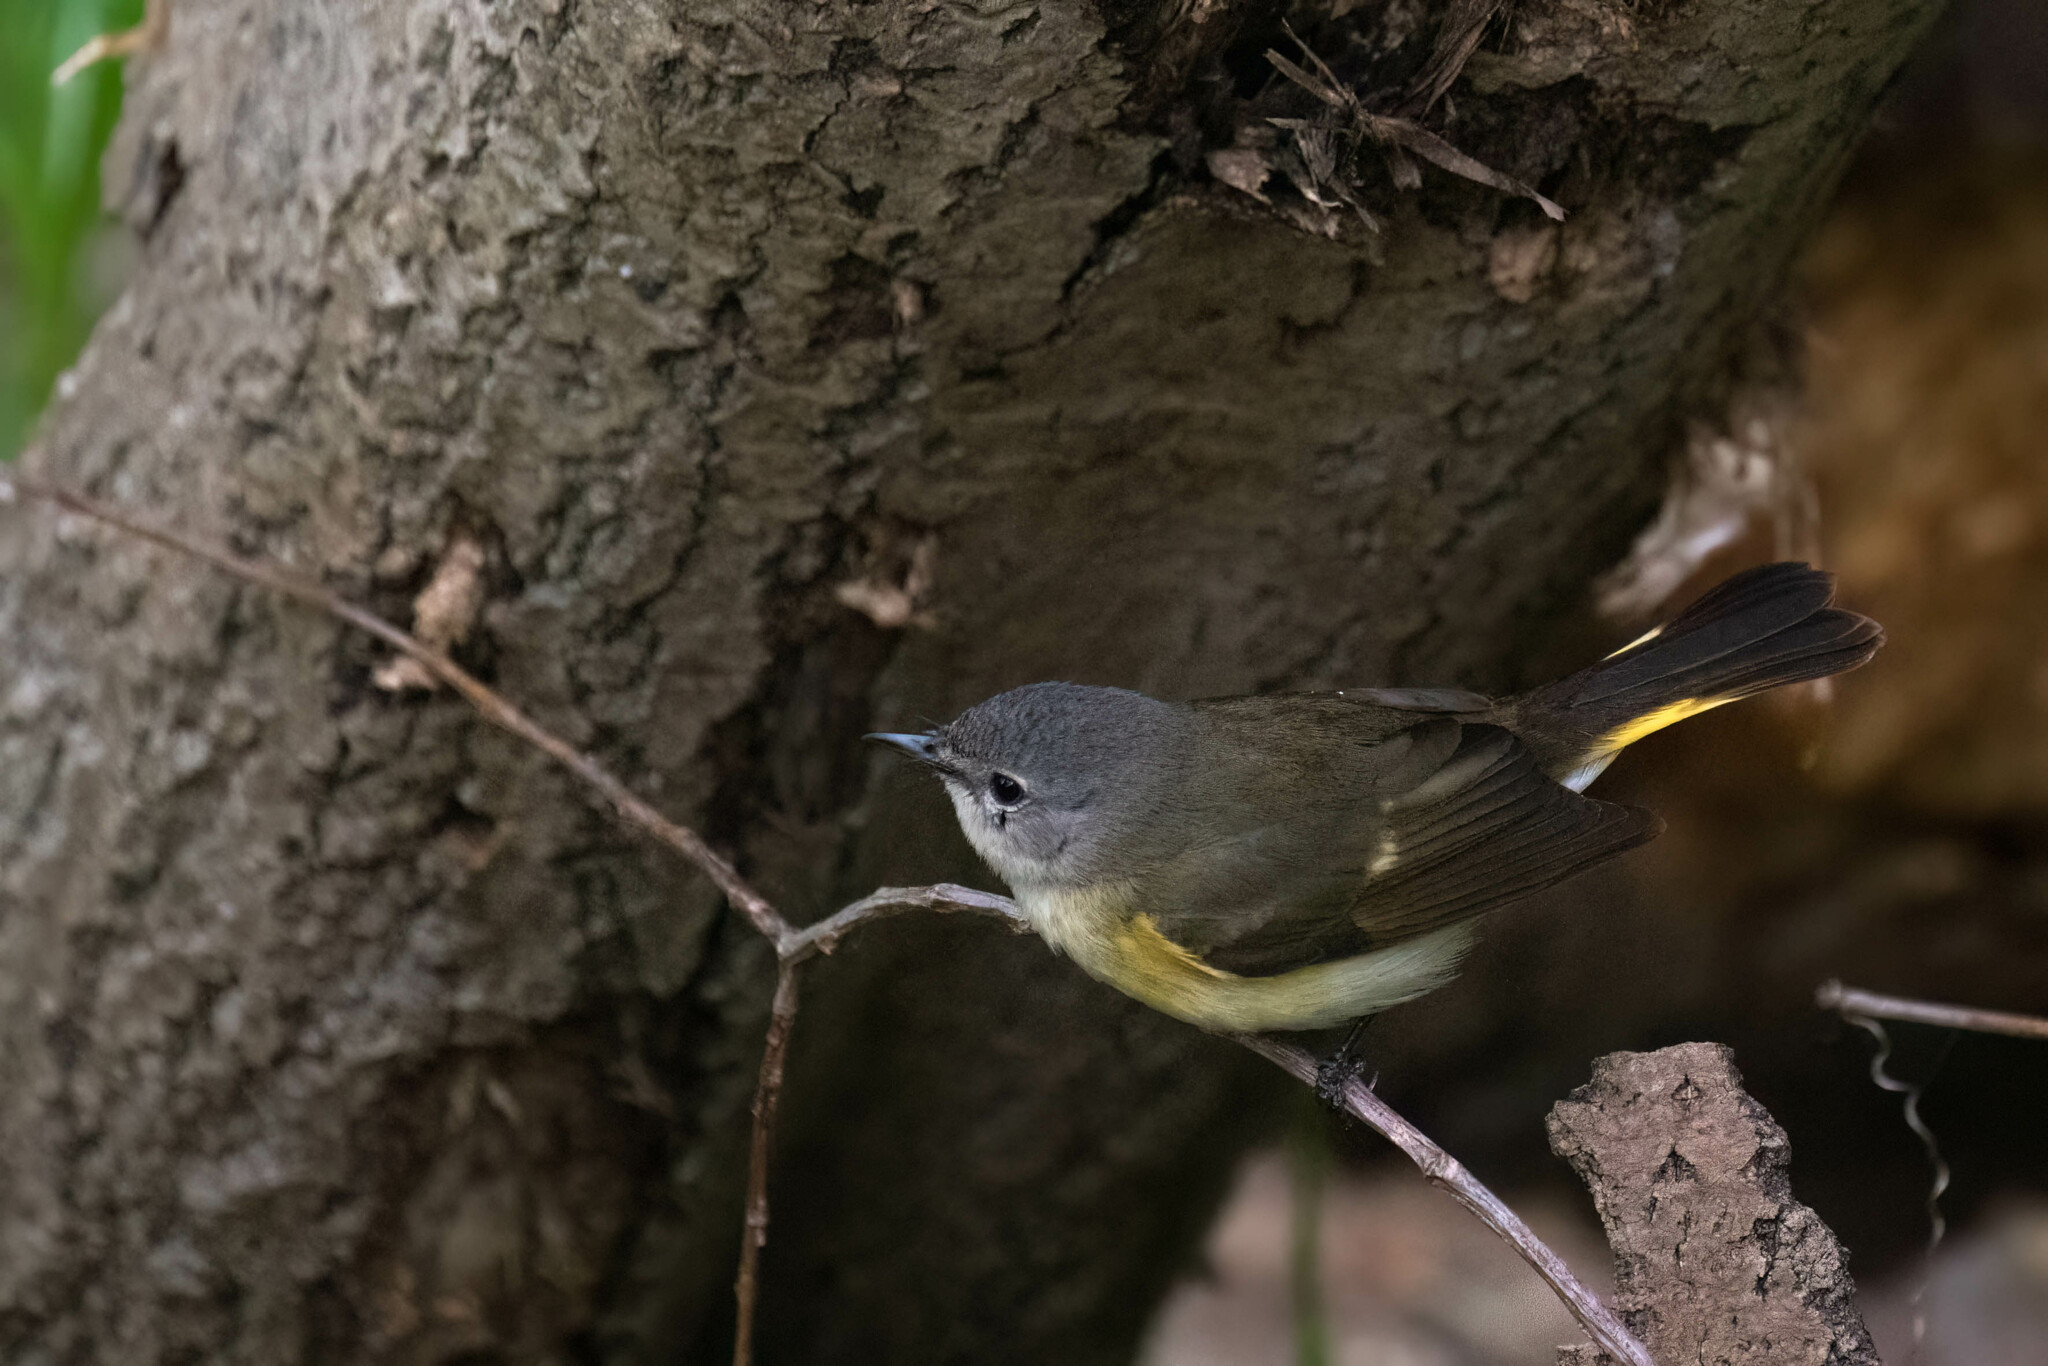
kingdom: Animalia
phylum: Chordata
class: Aves
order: Passeriformes
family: Parulidae
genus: Setophaga
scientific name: Setophaga ruticilla
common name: American redstart
